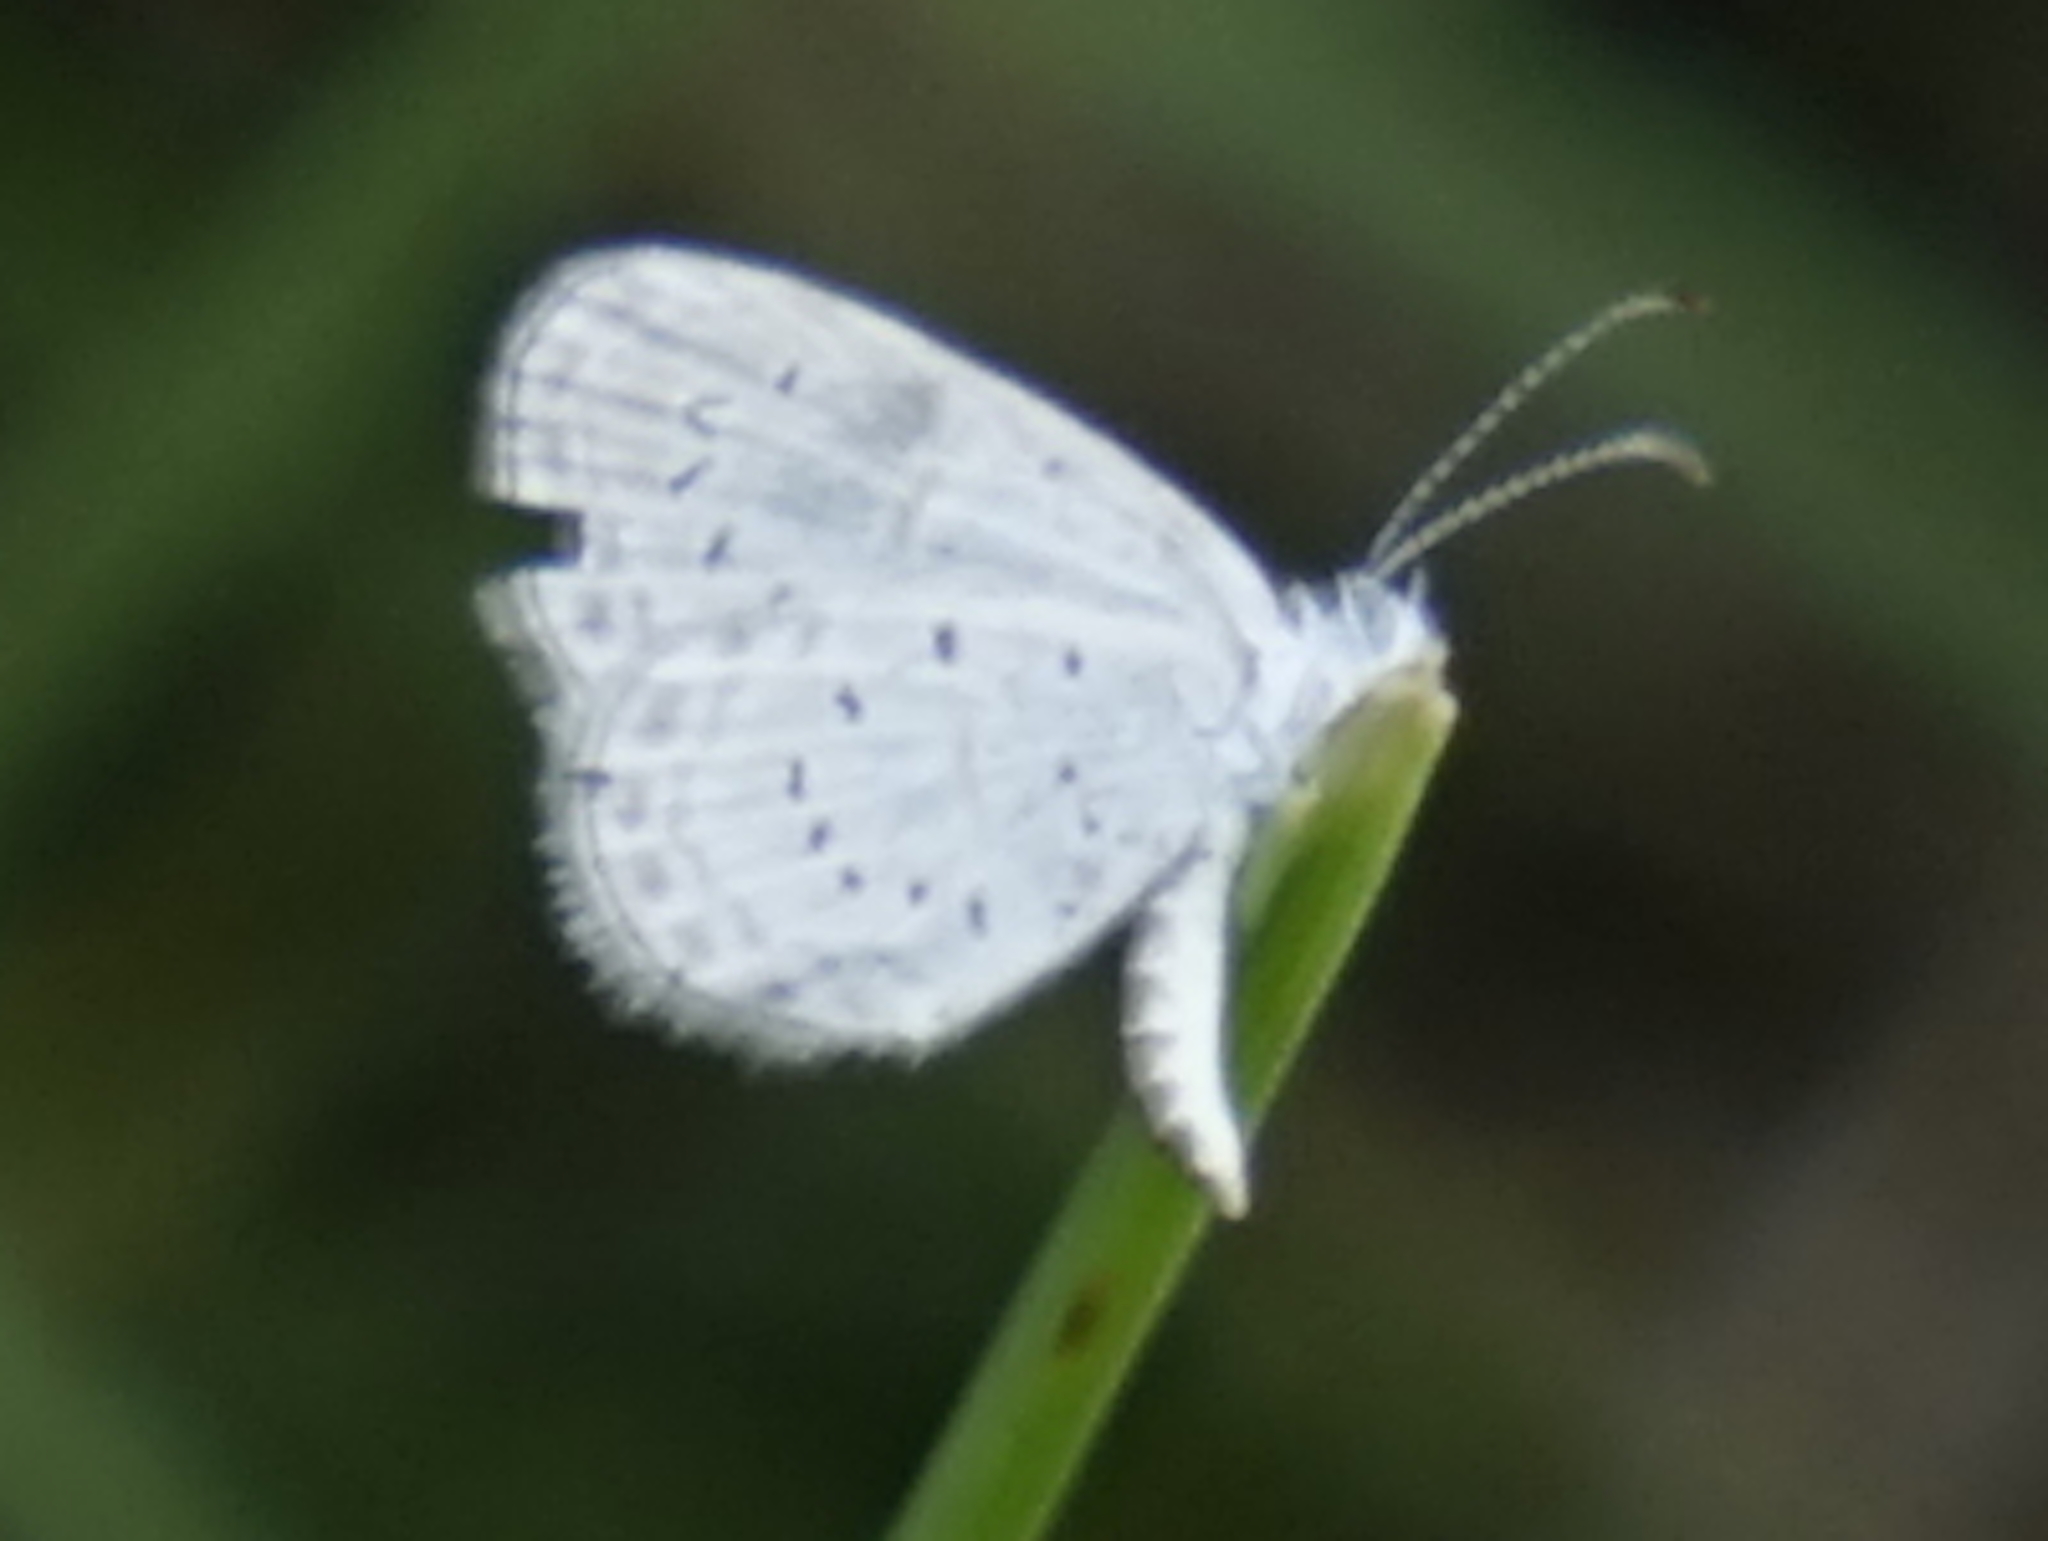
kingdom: Animalia
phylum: Arthropoda
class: Insecta
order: Lepidoptera
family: Lycaenidae
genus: Zizula
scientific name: Zizula hylax
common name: Gaika blue
